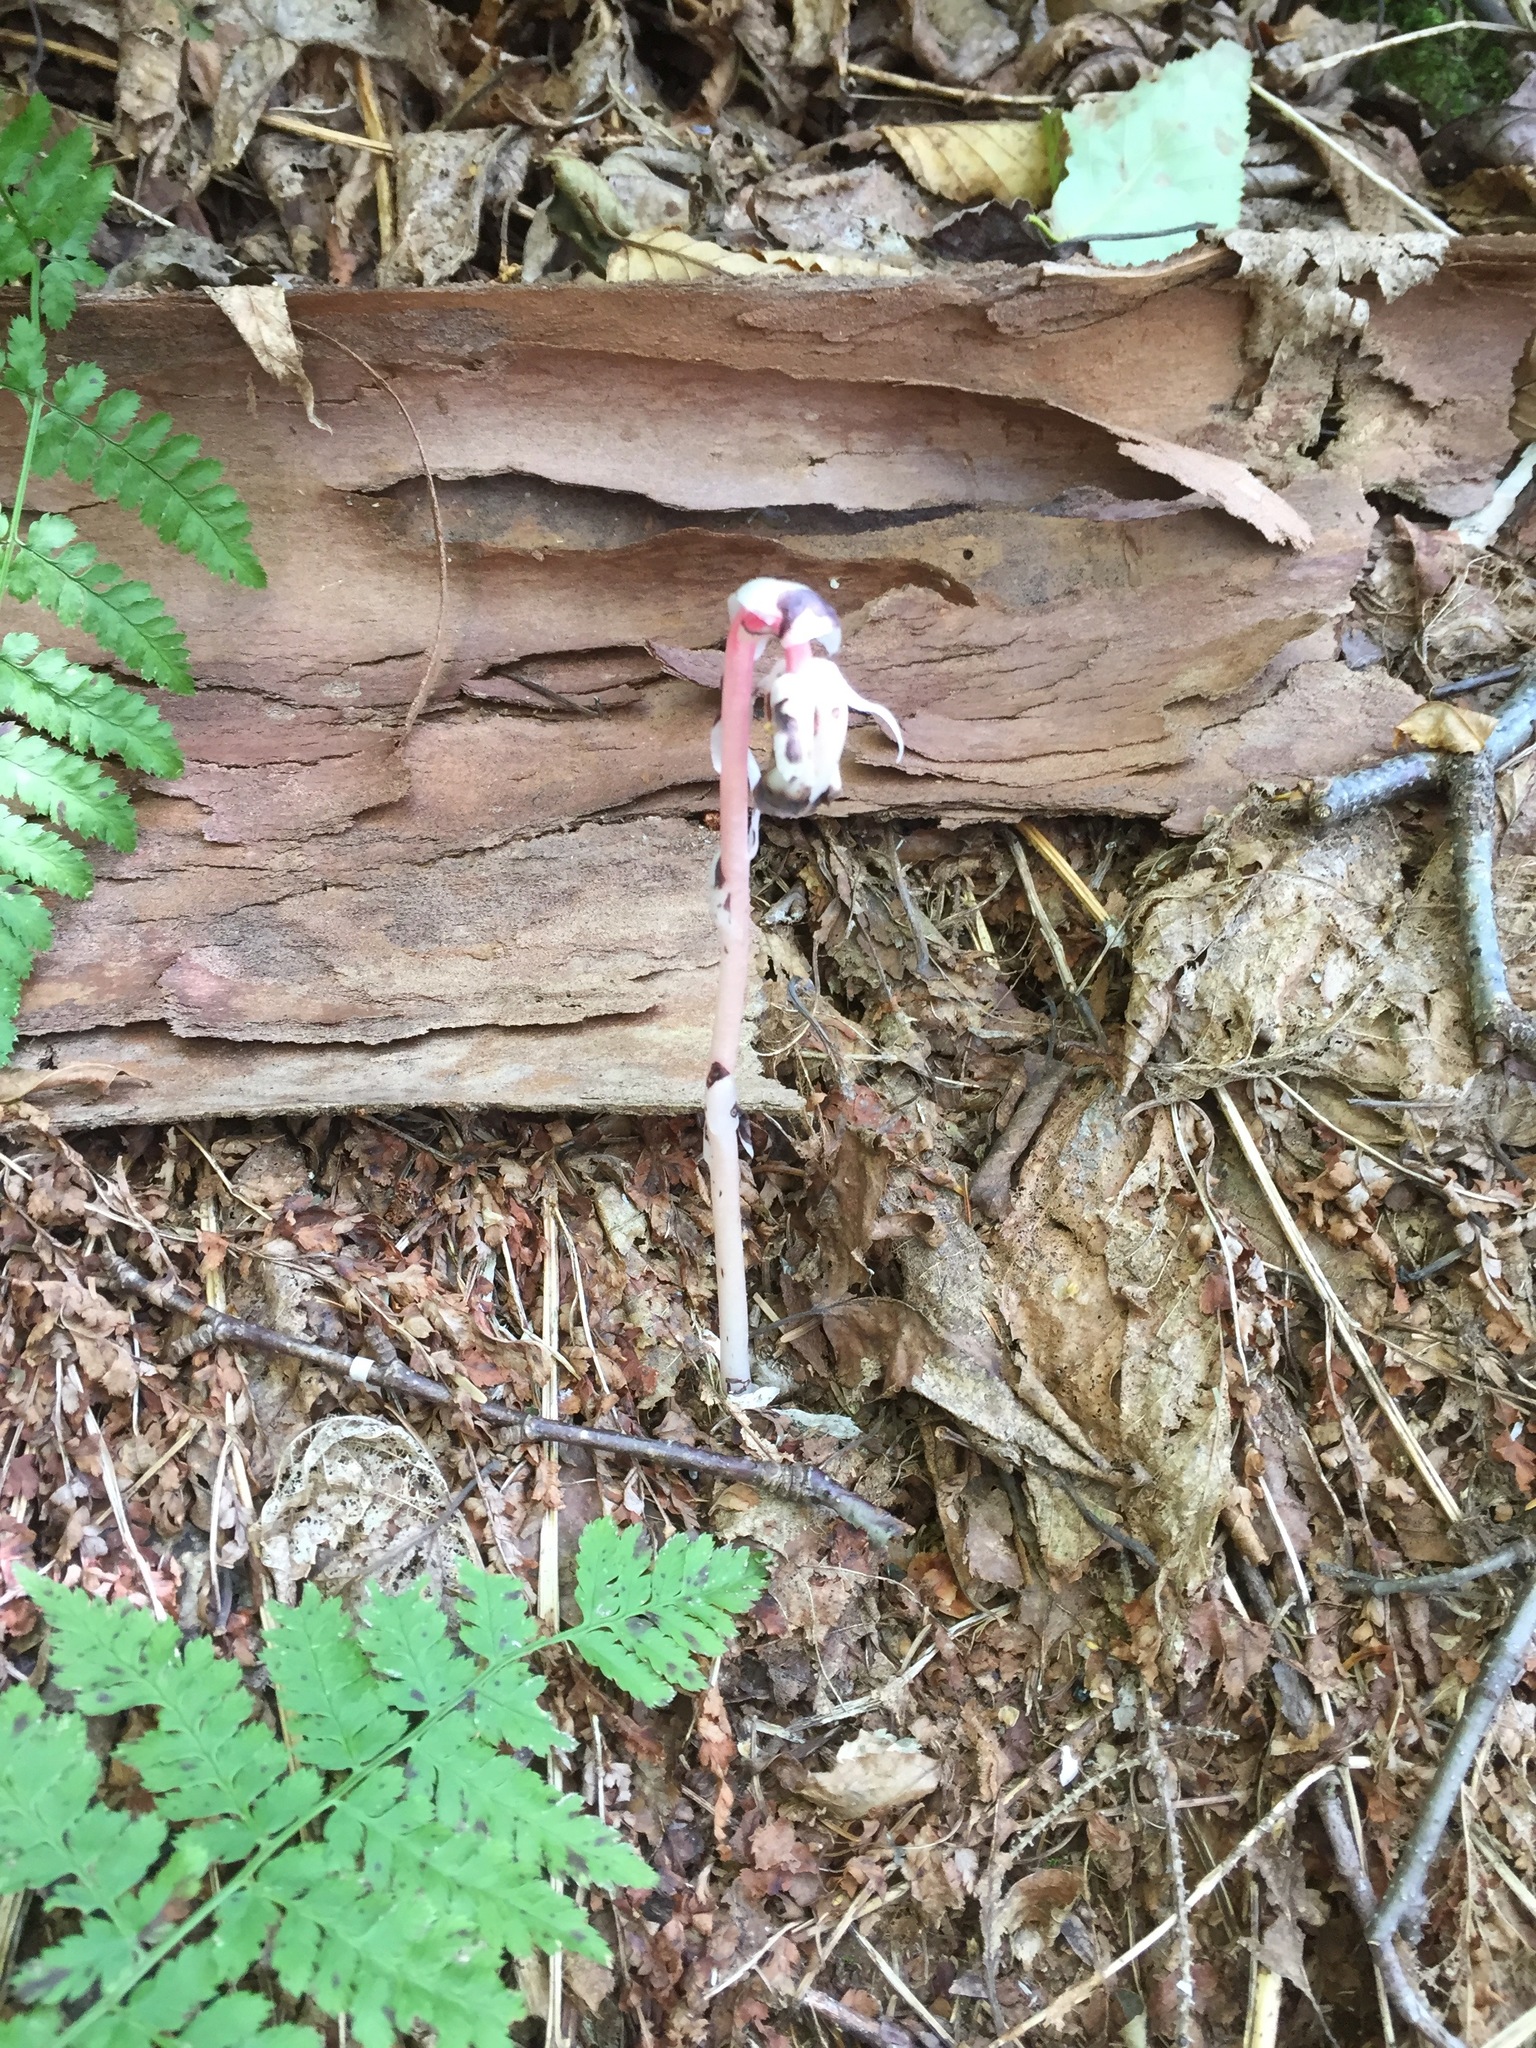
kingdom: Plantae
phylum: Tracheophyta
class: Magnoliopsida
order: Ericales
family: Ericaceae
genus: Monotropa
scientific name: Monotropa uniflora
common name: Convulsion root
